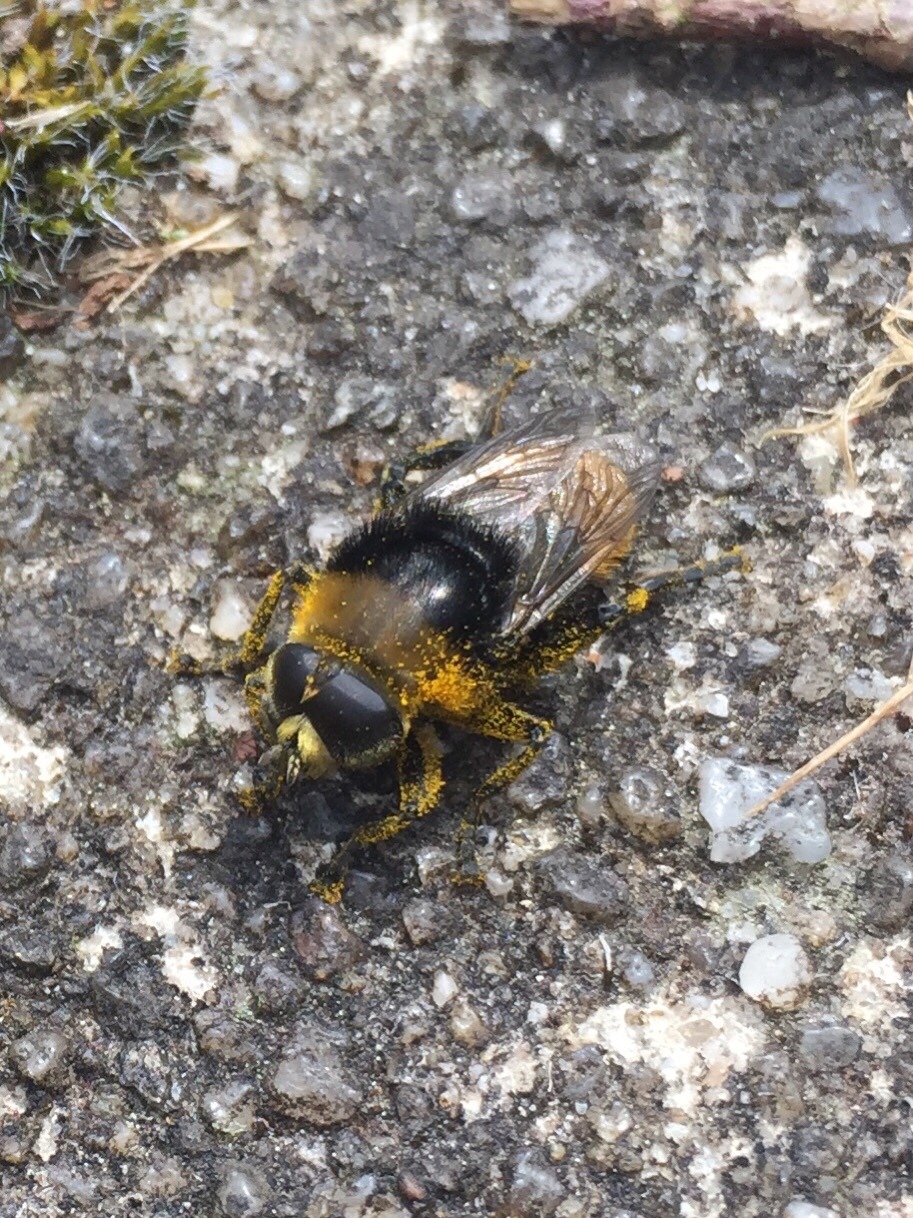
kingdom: Animalia
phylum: Arthropoda
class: Insecta
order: Diptera
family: Syrphidae
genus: Merodon
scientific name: Merodon equestris
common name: Greater bulb-fly
